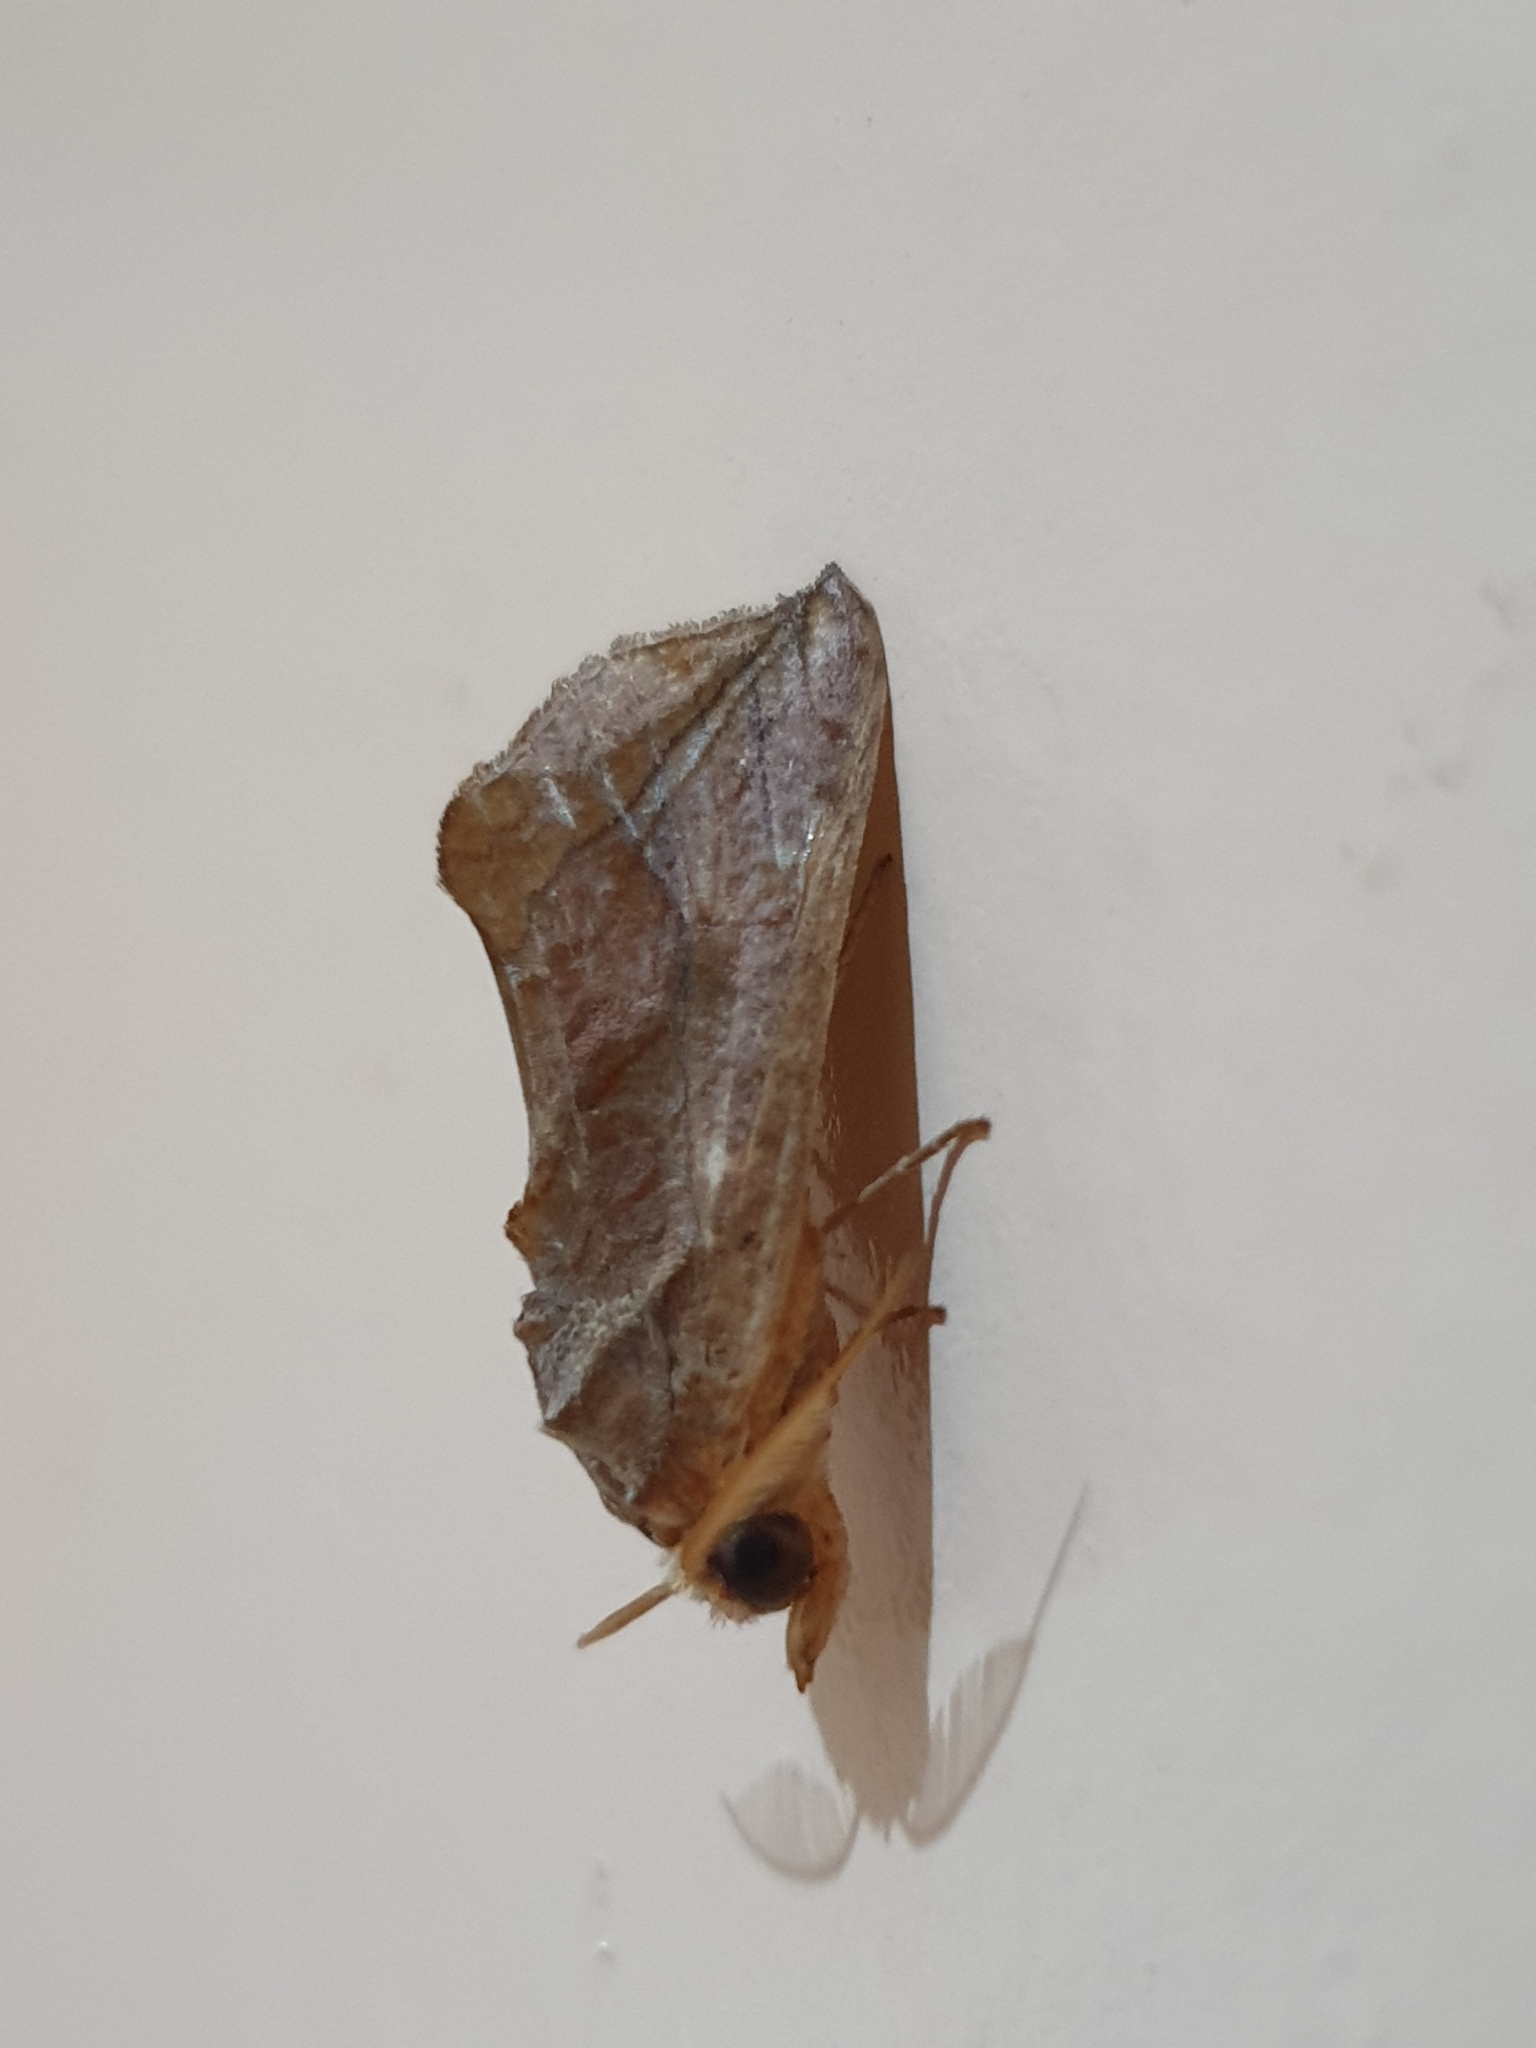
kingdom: Animalia
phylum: Arthropoda
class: Insecta
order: Lepidoptera
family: Erebidae
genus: Oraesia
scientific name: Oraesia emarginata
